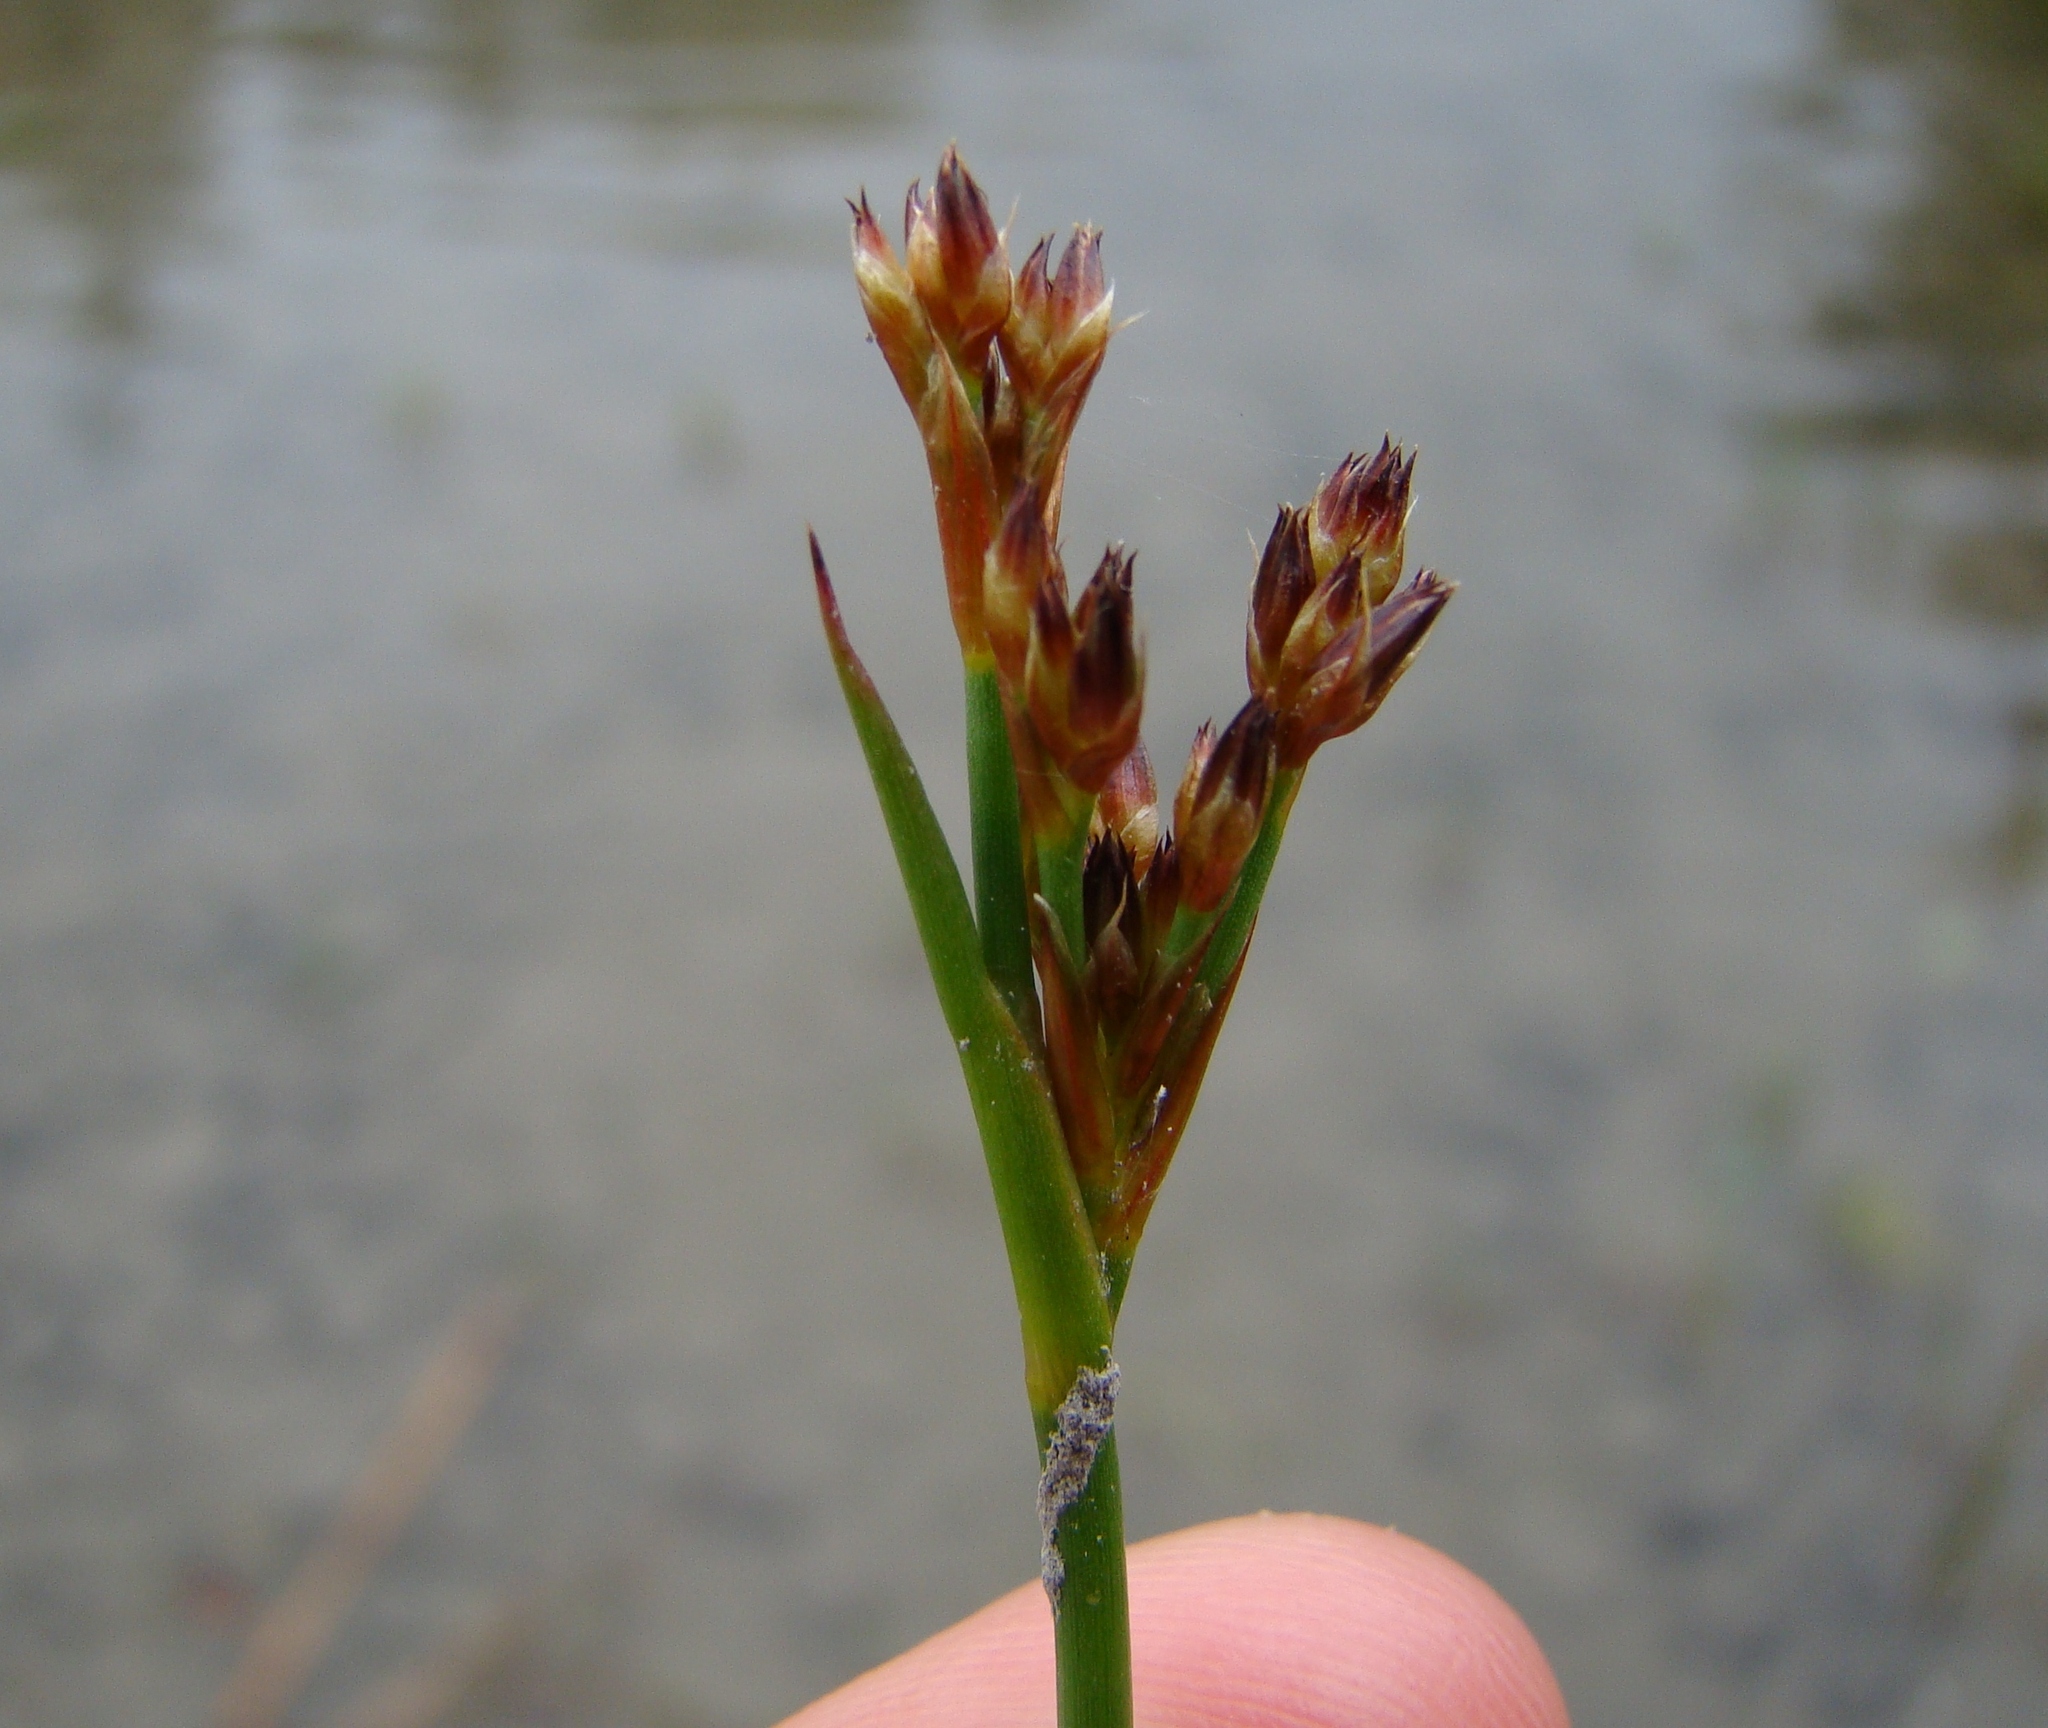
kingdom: Plantae
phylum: Tracheophyta
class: Liliopsida
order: Poales
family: Juncaceae
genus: Juncus
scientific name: Juncus articulatus
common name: Jointed rush
